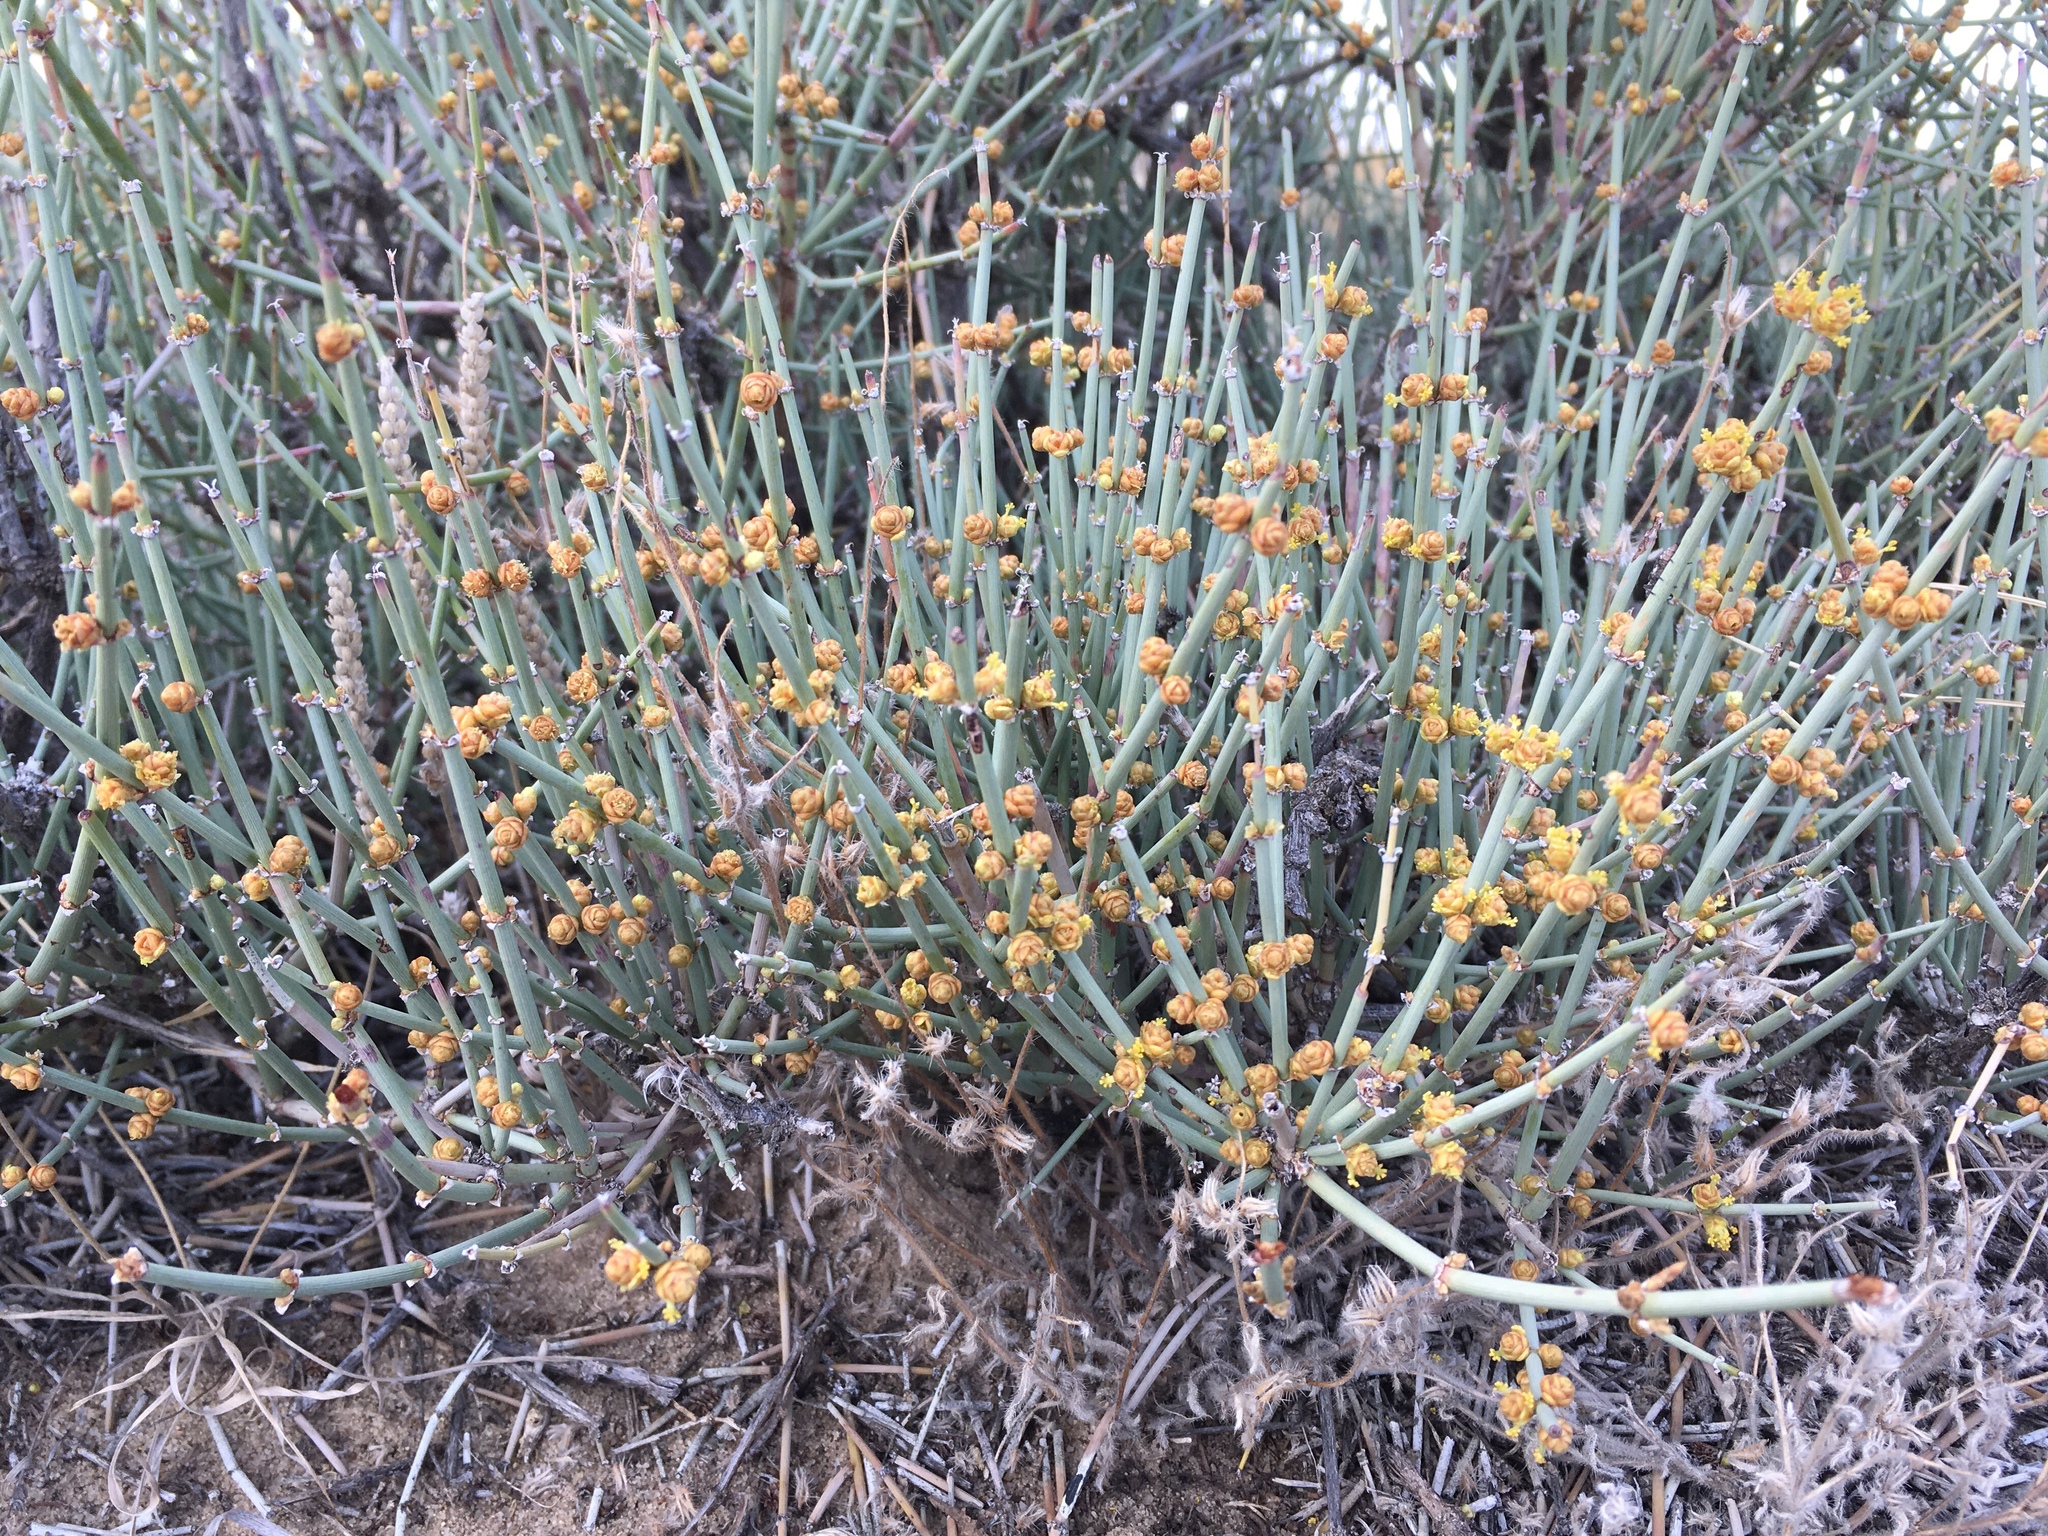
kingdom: Plantae
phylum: Tracheophyta
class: Gnetopsida
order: Ephedrales
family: Ephedraceae
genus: Ephedra
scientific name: Ephedra torreyana
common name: Torrey ephedra
